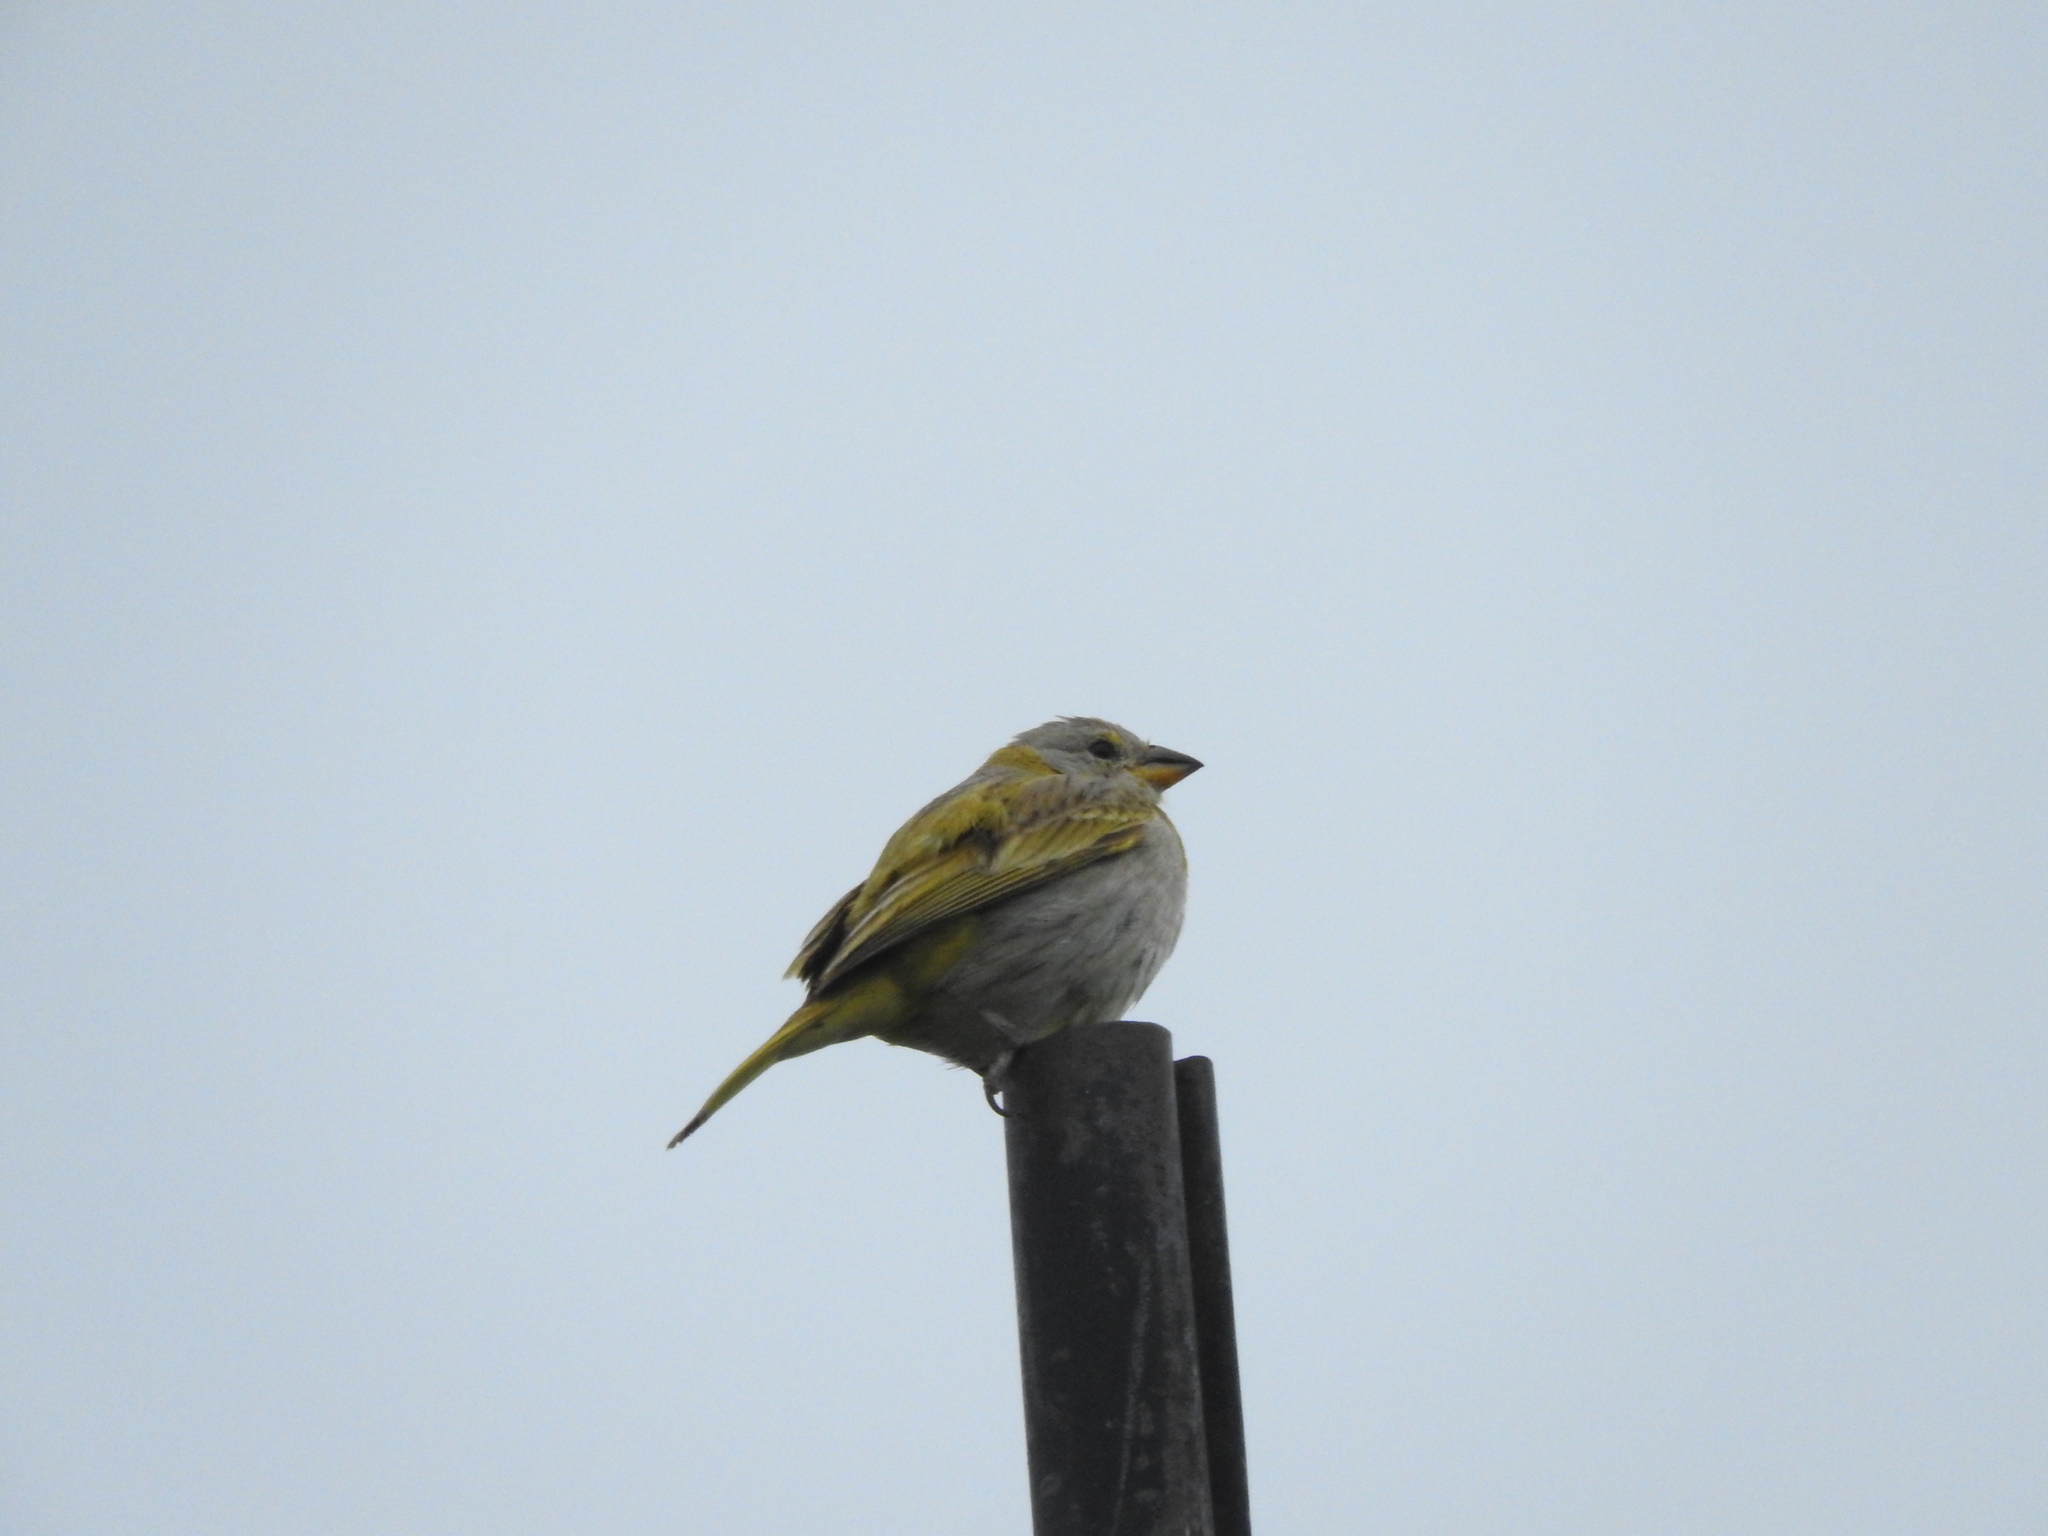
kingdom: Animalia
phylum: Chordata
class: Aves
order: Passeriformes
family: Thraupidae
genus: Sicalis
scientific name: Sicalis flaveola
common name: Saffron finch
